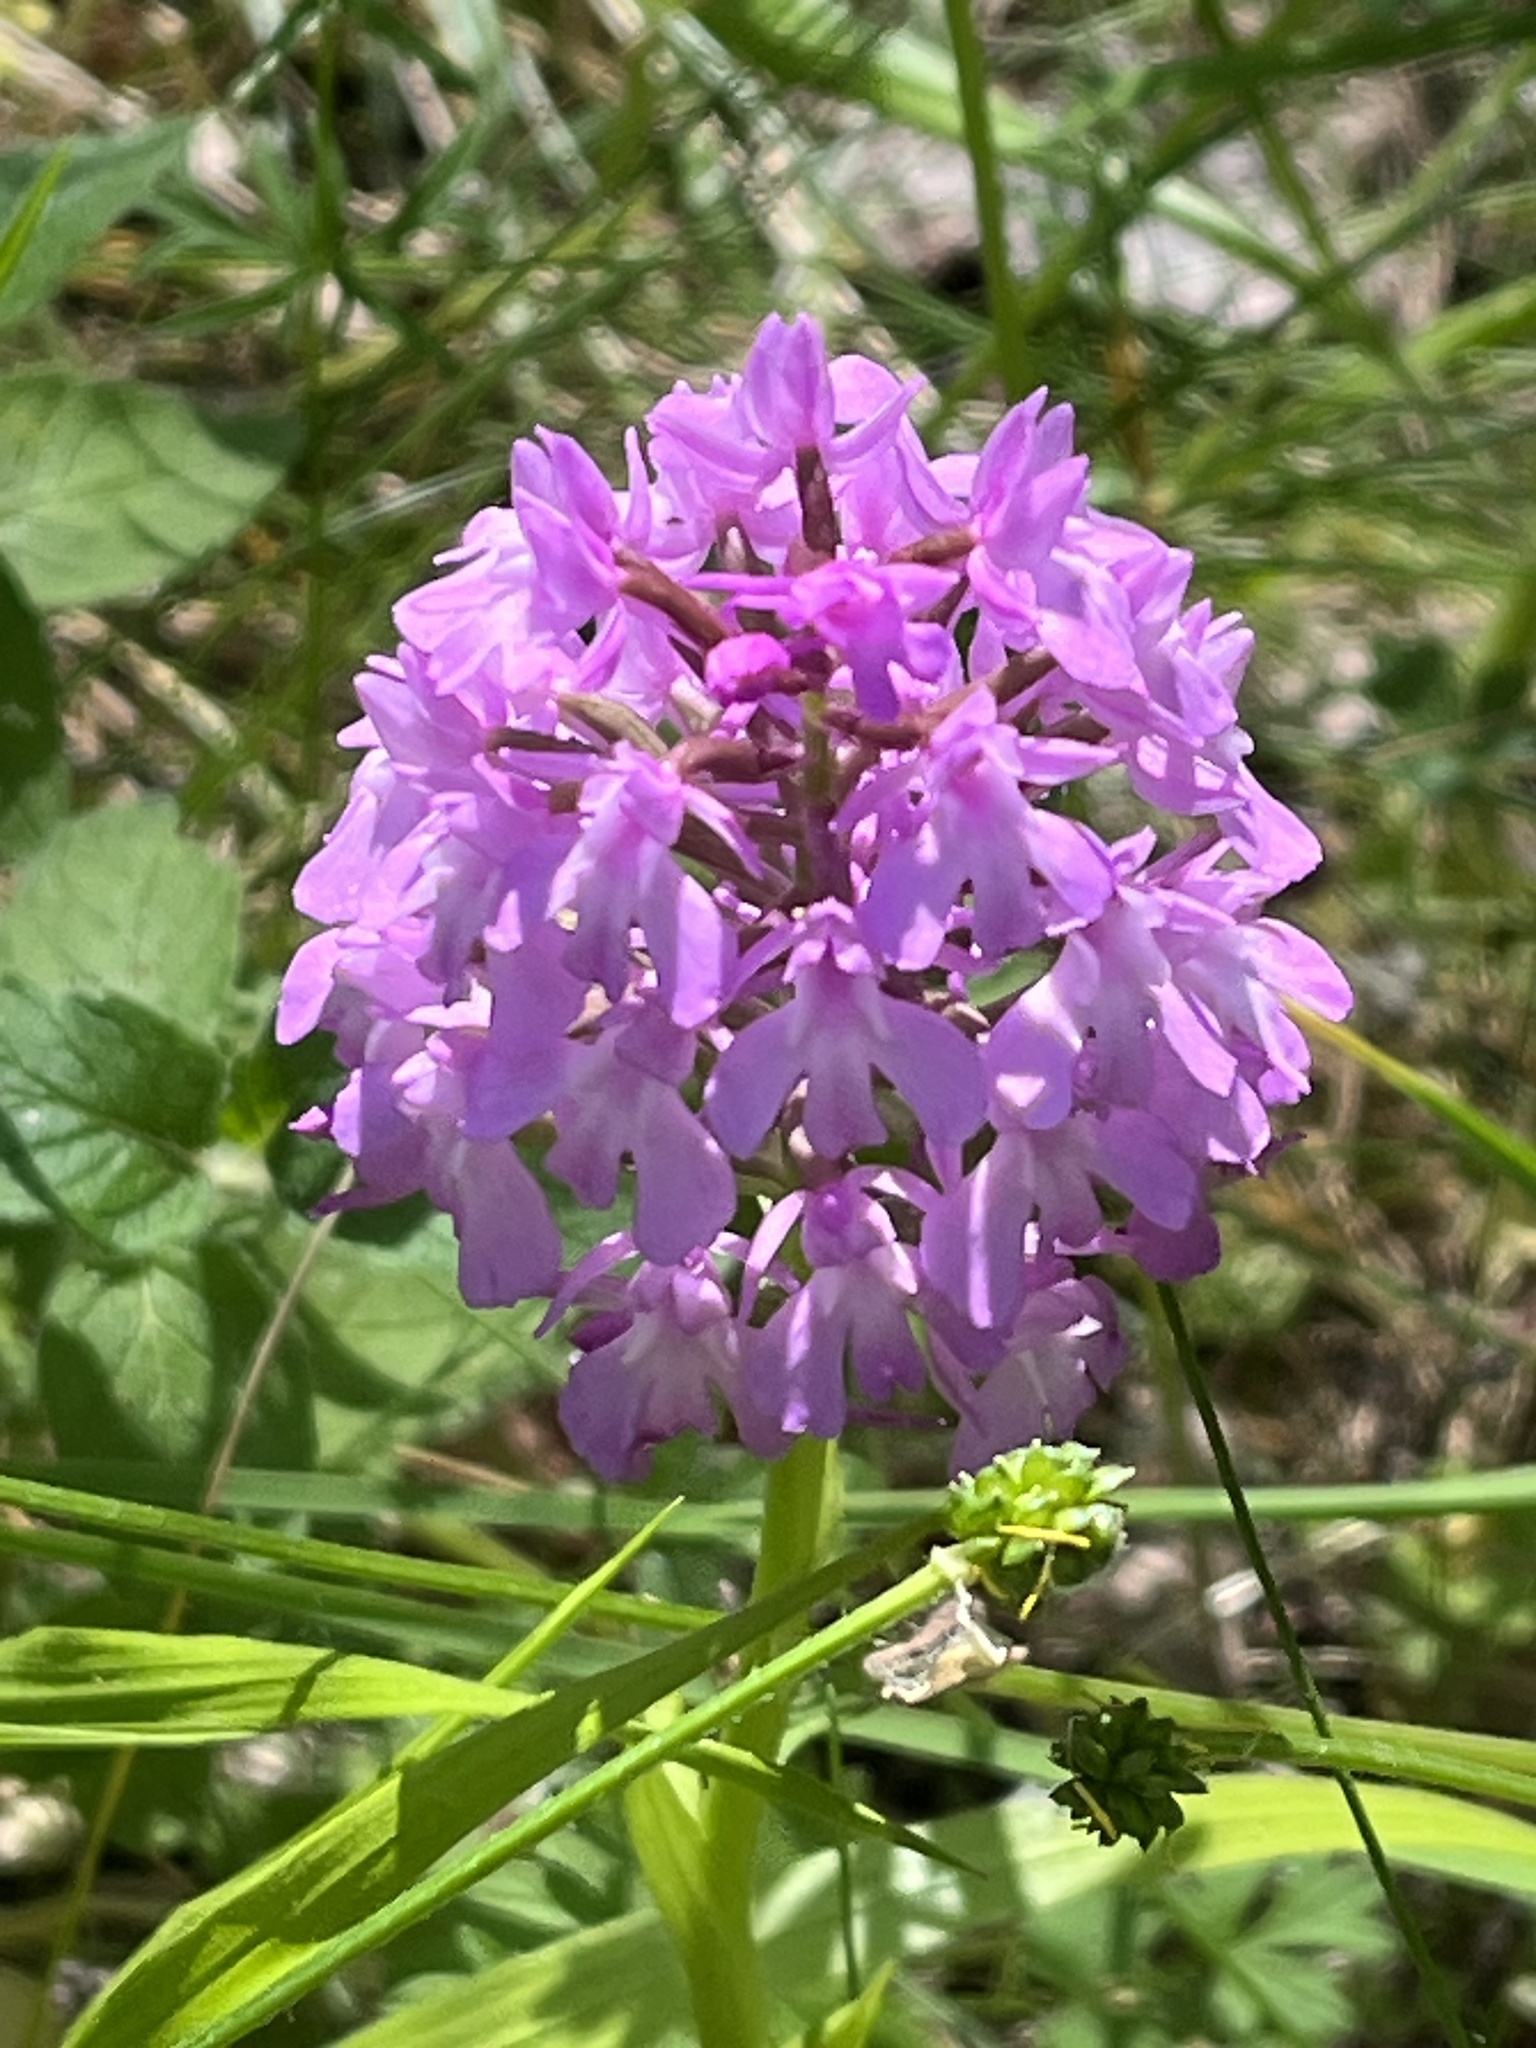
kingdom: Plantae
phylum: Tracheophyta
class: Liliopsida
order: Asparagales
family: Orchidaceae
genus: Anacamptis
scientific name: Anacamptis pyramidalis
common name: Pyramidal orchid
